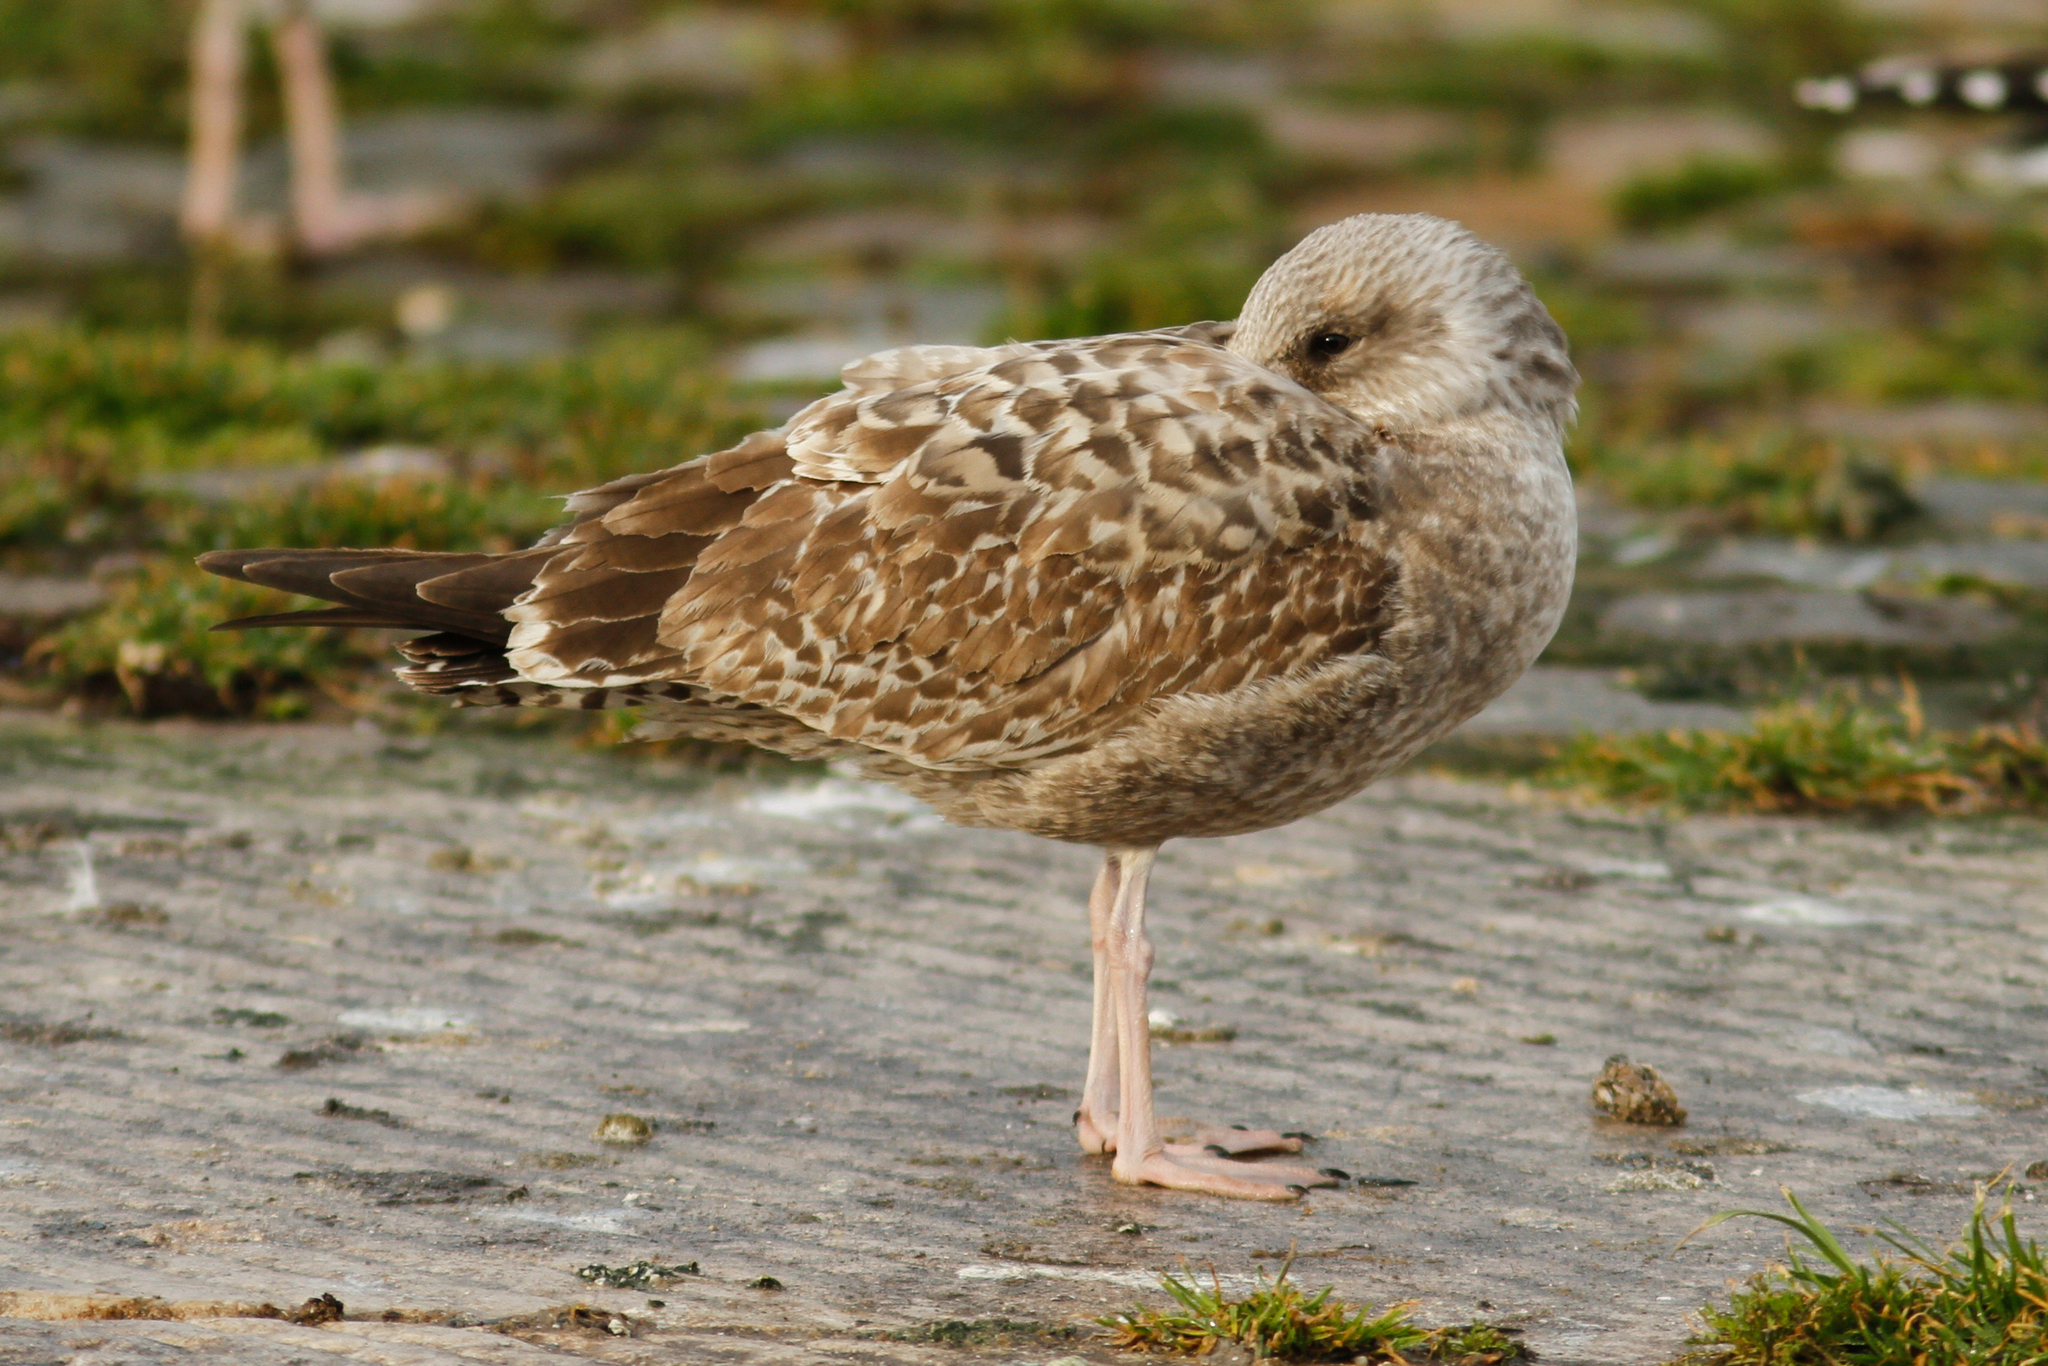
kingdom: Animalia
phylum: Chordata
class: Aves
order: Charadriiformes
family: Laridae
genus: Larus
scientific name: Larus argentatus
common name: Herring gull
